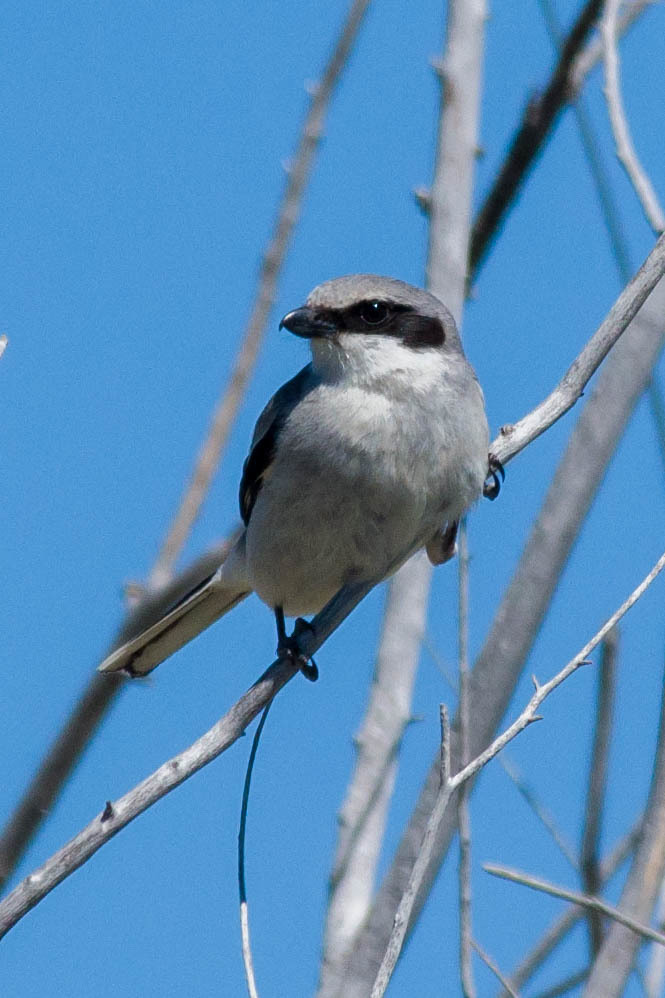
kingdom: Animalia
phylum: Chordata
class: Aves
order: Passeriformes
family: Laniidae
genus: Lanius
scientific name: Lanius ludovicianus
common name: Loggerhead shrike
